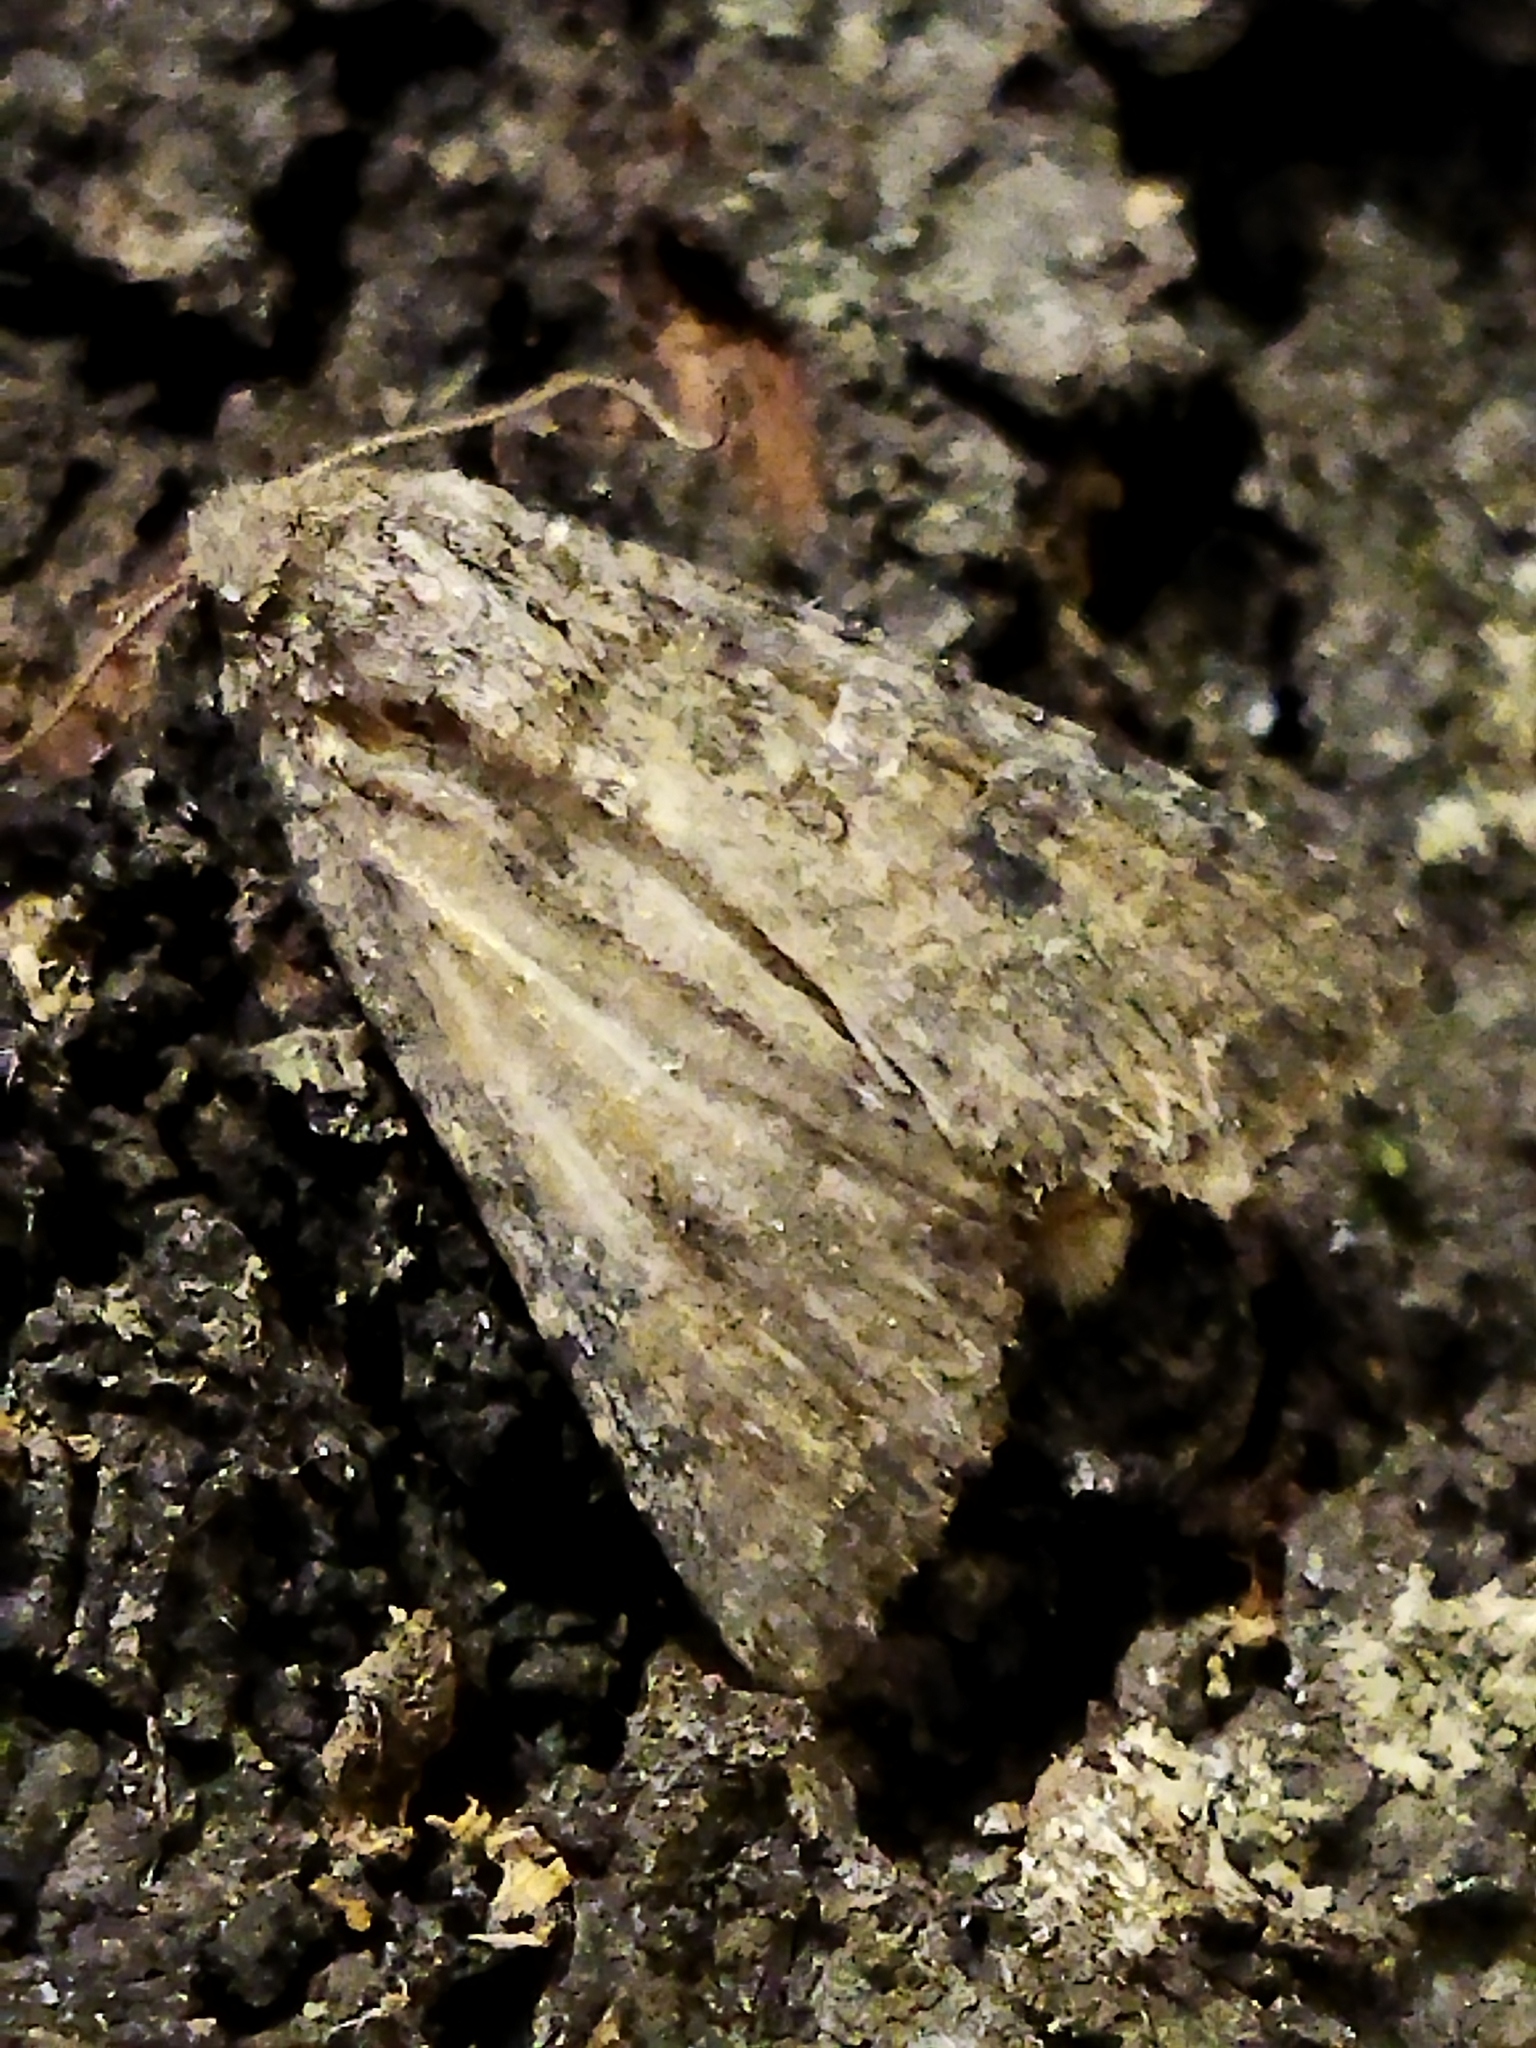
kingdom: Animalia
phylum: Arthropoda
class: Insecta
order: Lepidoptera
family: Noctuidae
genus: Anarta
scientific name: Anarta trifolii
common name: Clover cutworm moth
